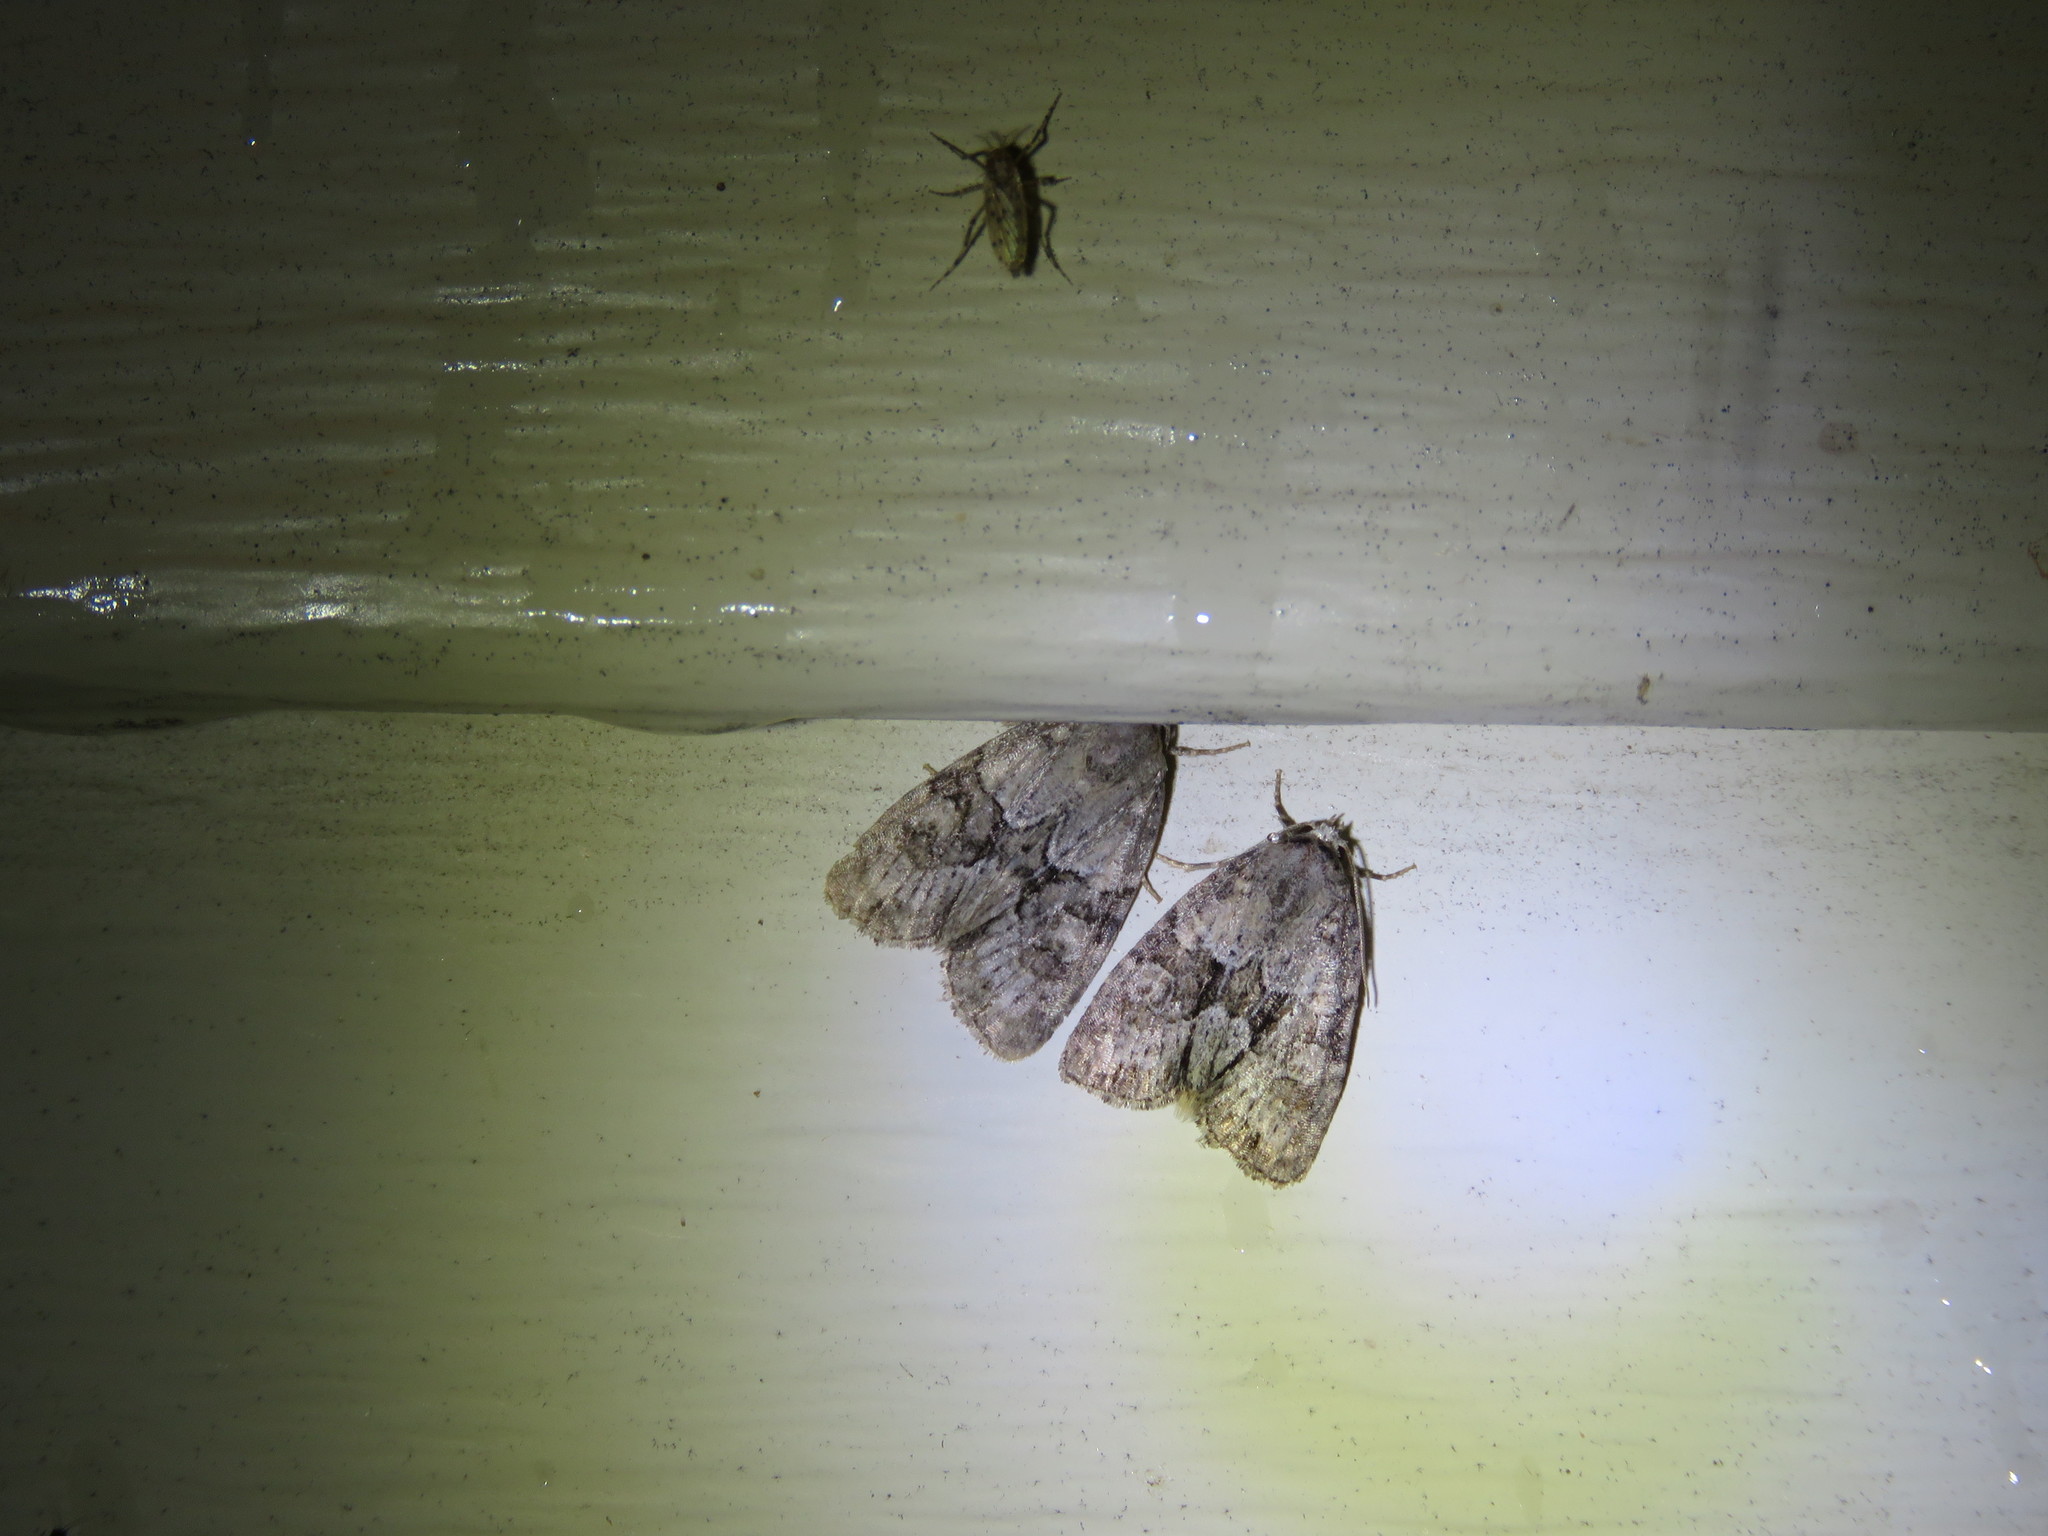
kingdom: Animalia
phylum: Arthropoda
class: Insecta
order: Lepidoptera
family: Noctuidae
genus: Neoligia
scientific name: Neoligia exhausta
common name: Exhausted brocade
